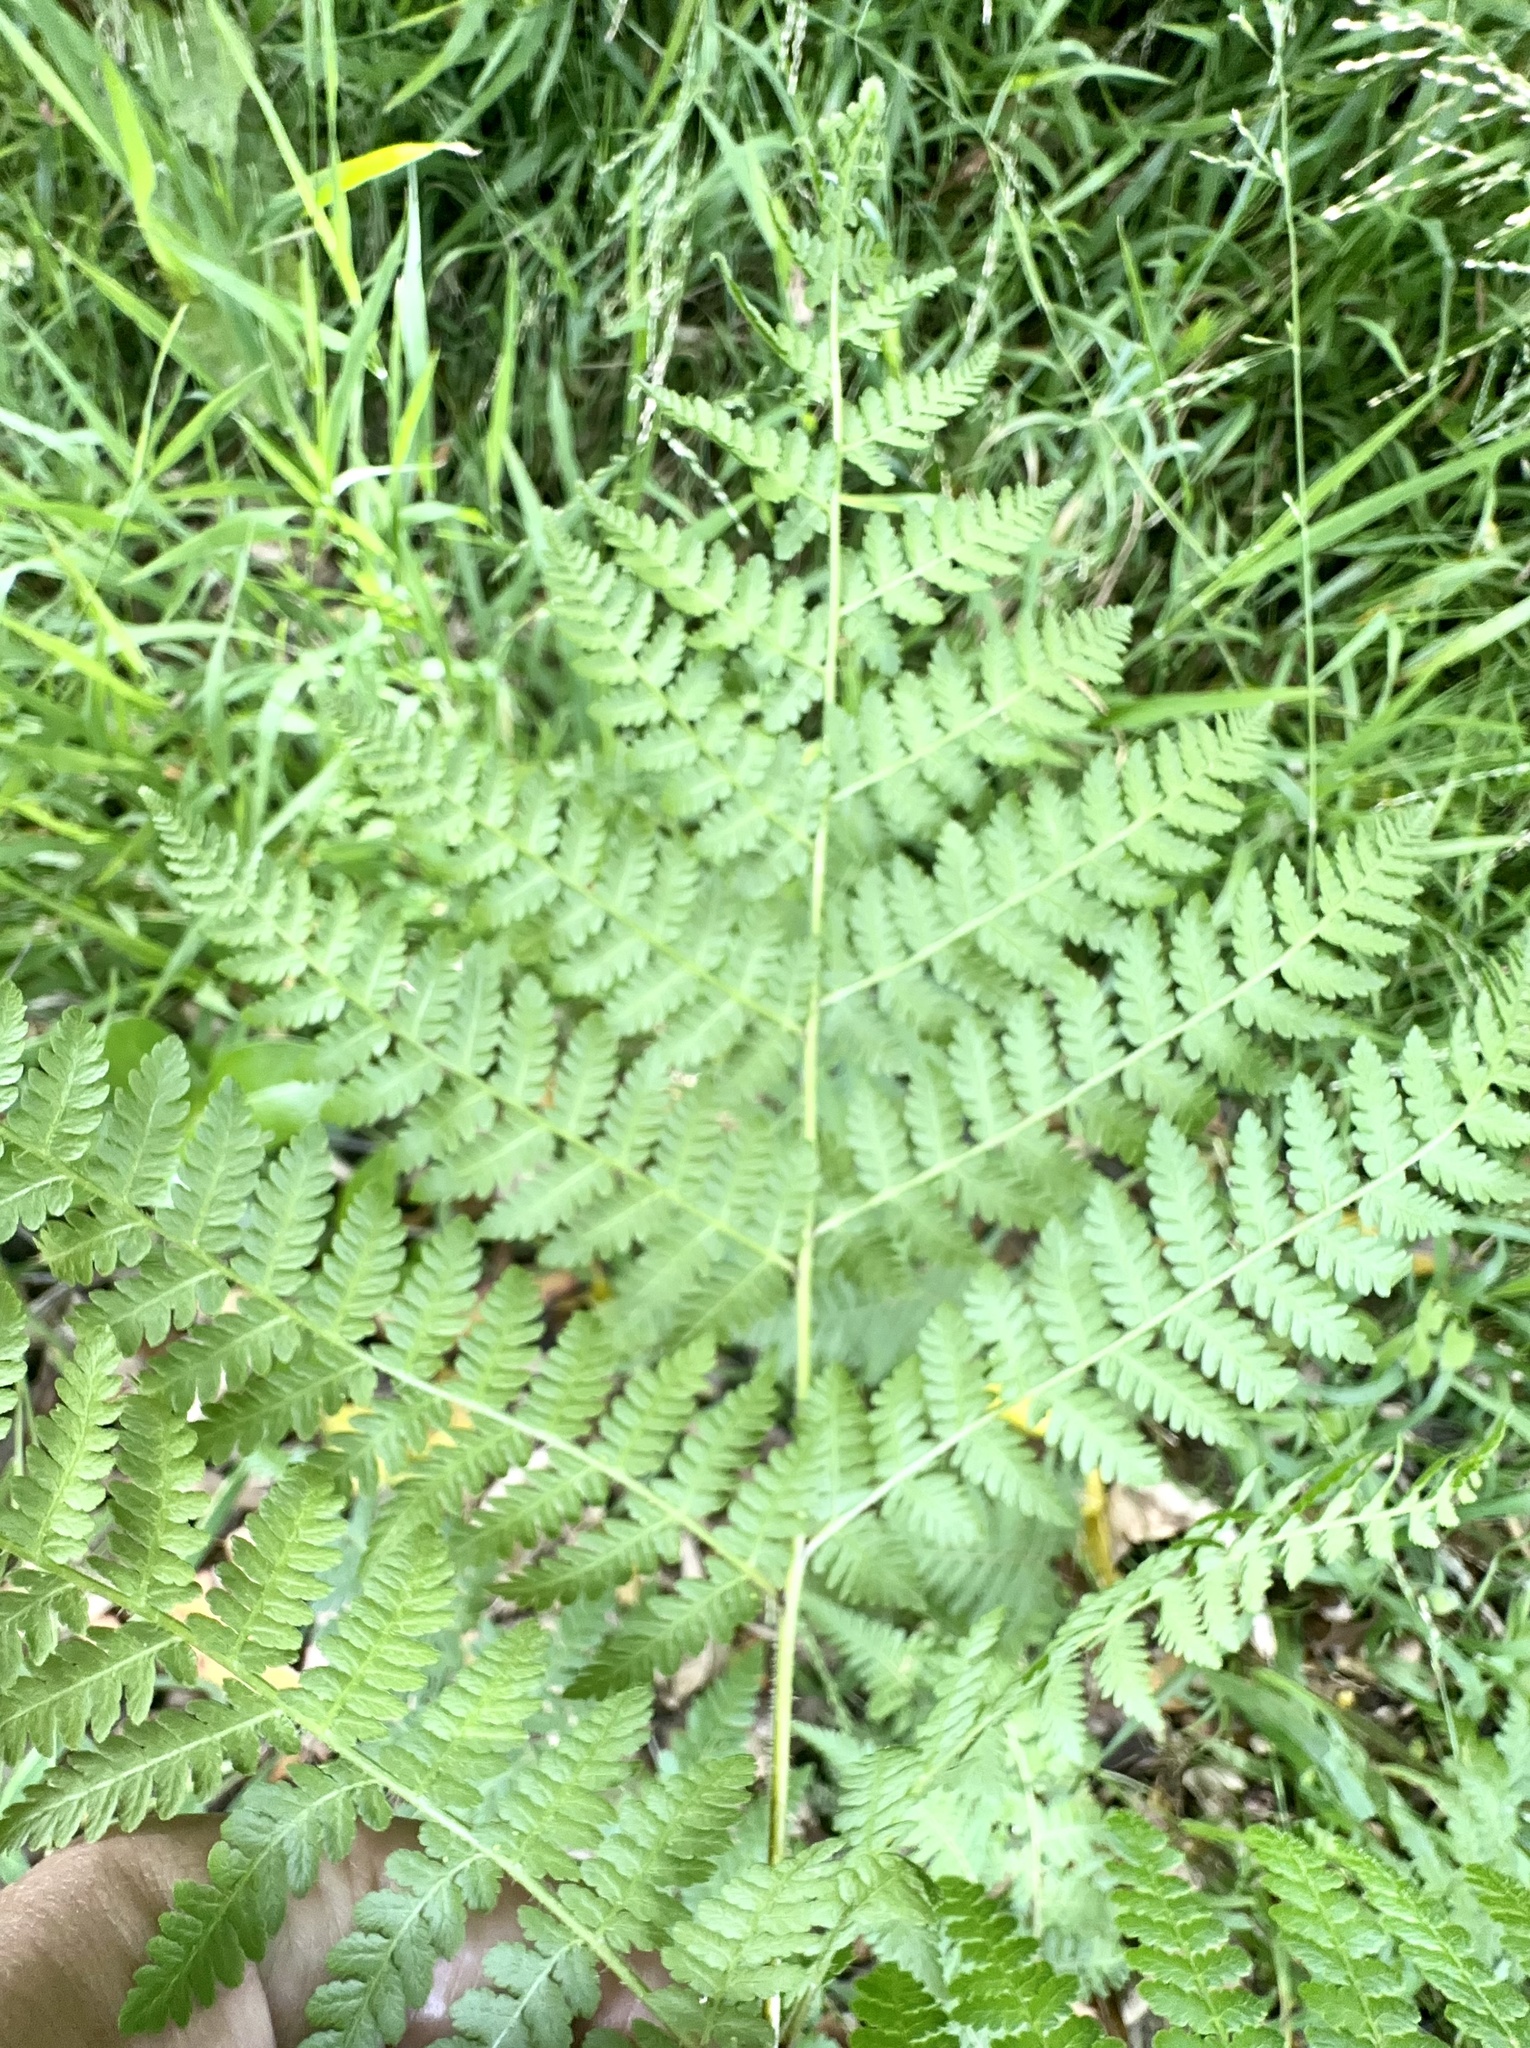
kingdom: Plantae
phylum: Tracheophyta
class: Polypodiopsida
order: Polypodiales
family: Dennstaedtiaceae
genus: Hypolepis
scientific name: Hypolepis ambigua
